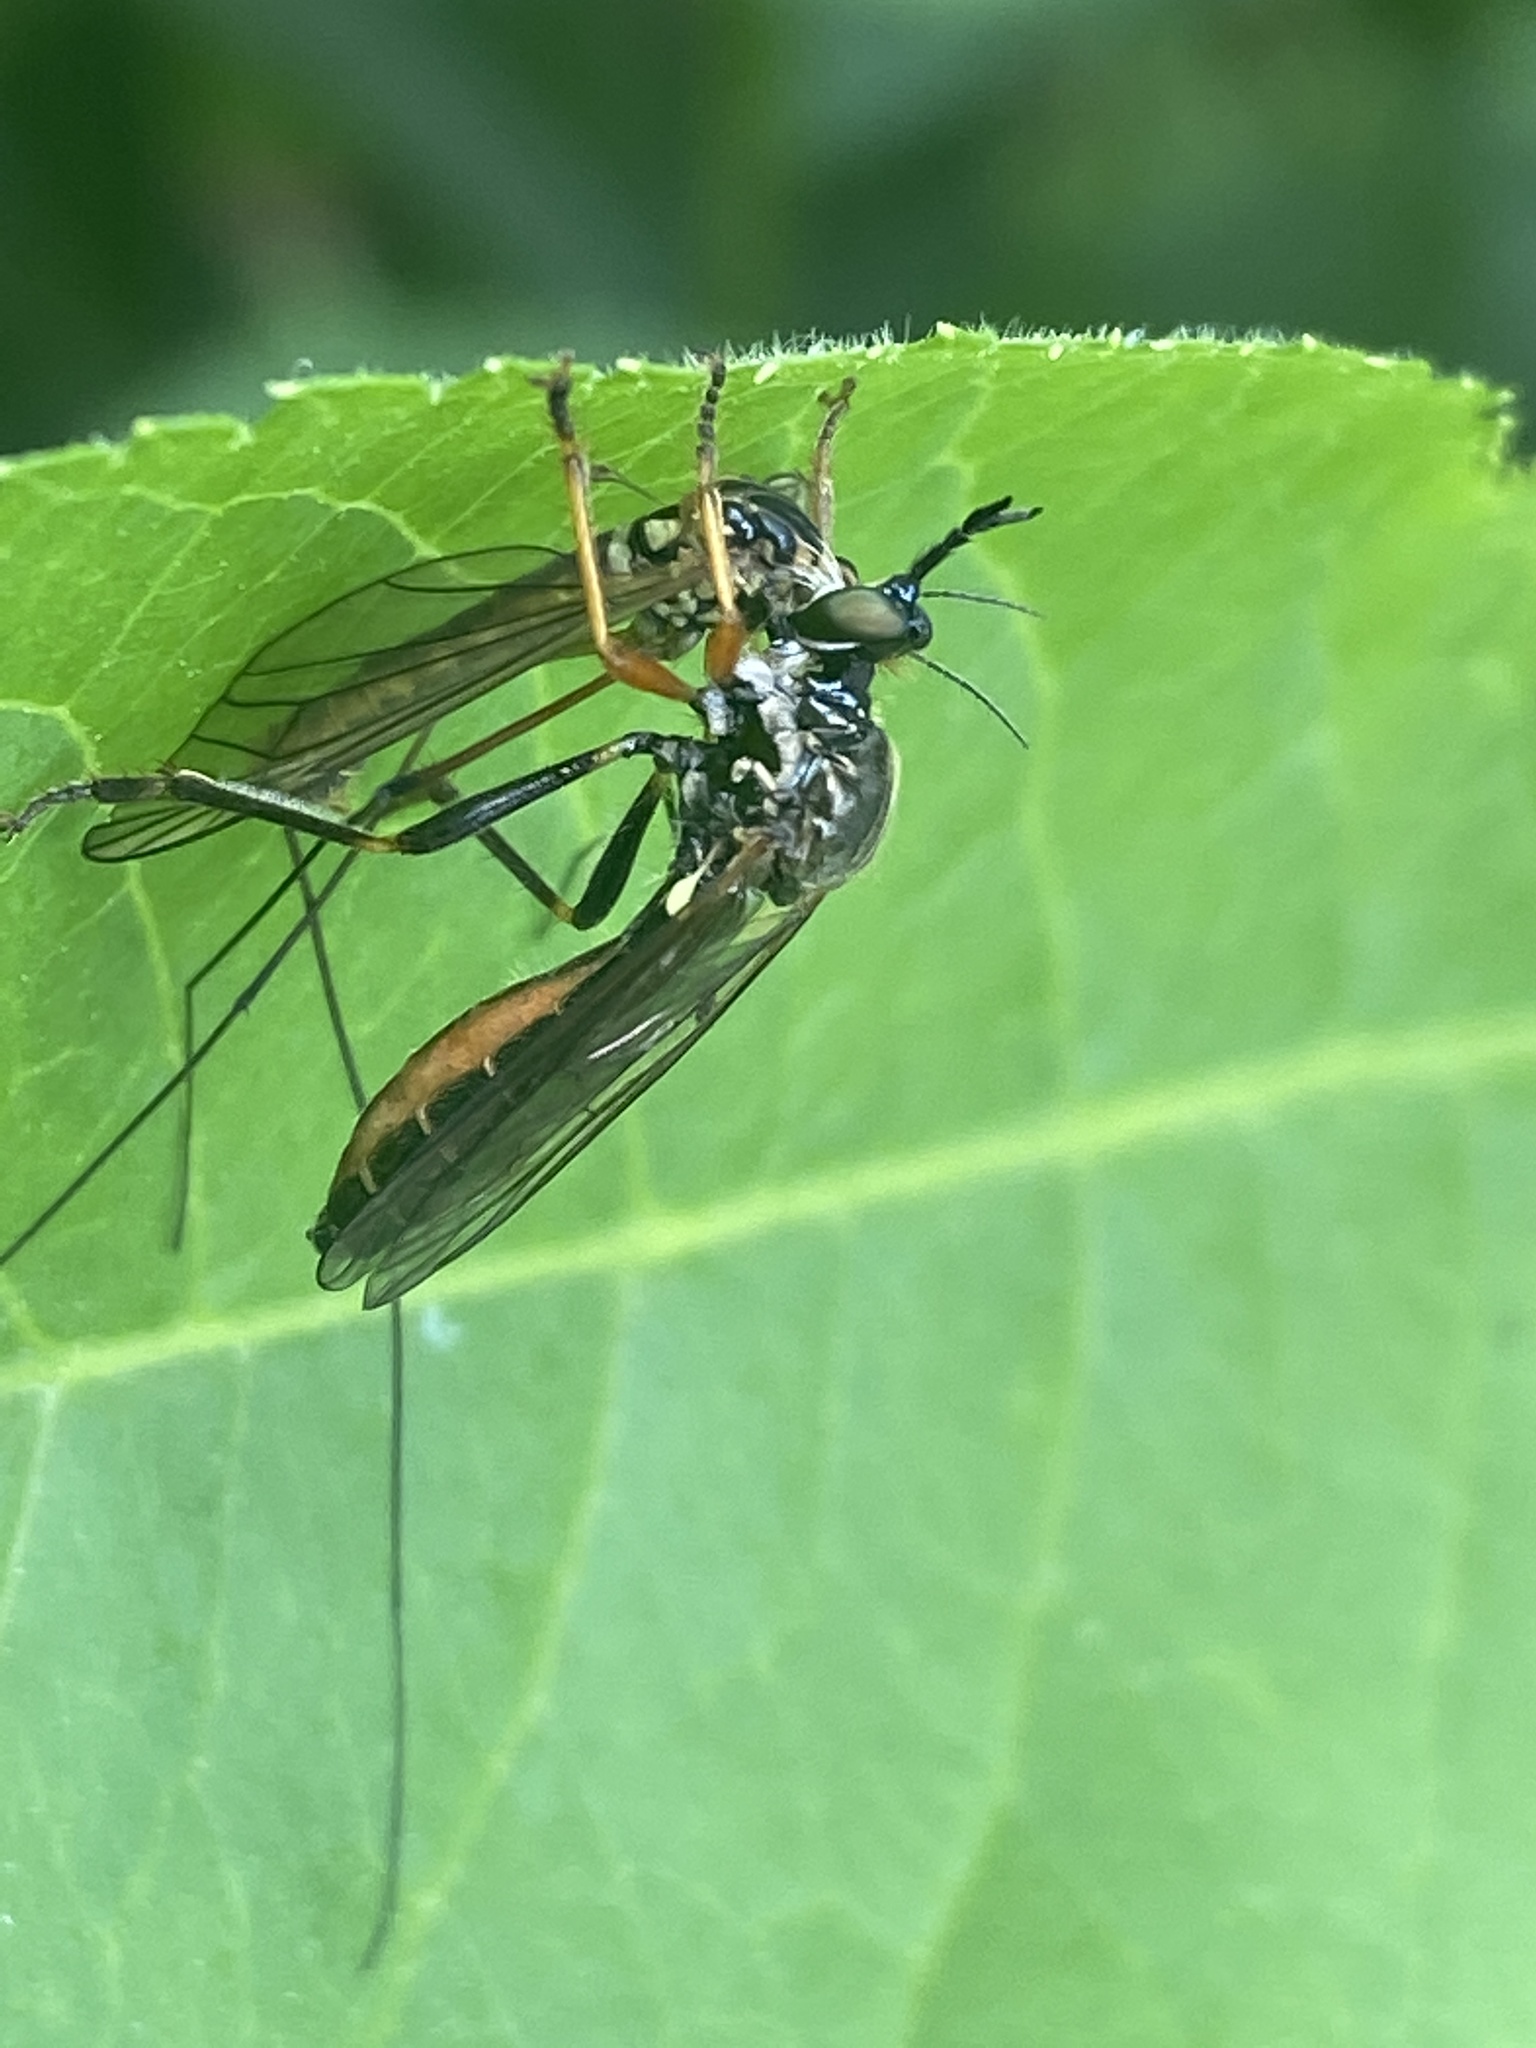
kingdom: Animalia
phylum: Arthropoda
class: Insecta
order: Diptera
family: Asilidae
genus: Dioctria
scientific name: Dioctria rufipes
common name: Common red-legged robberfly
